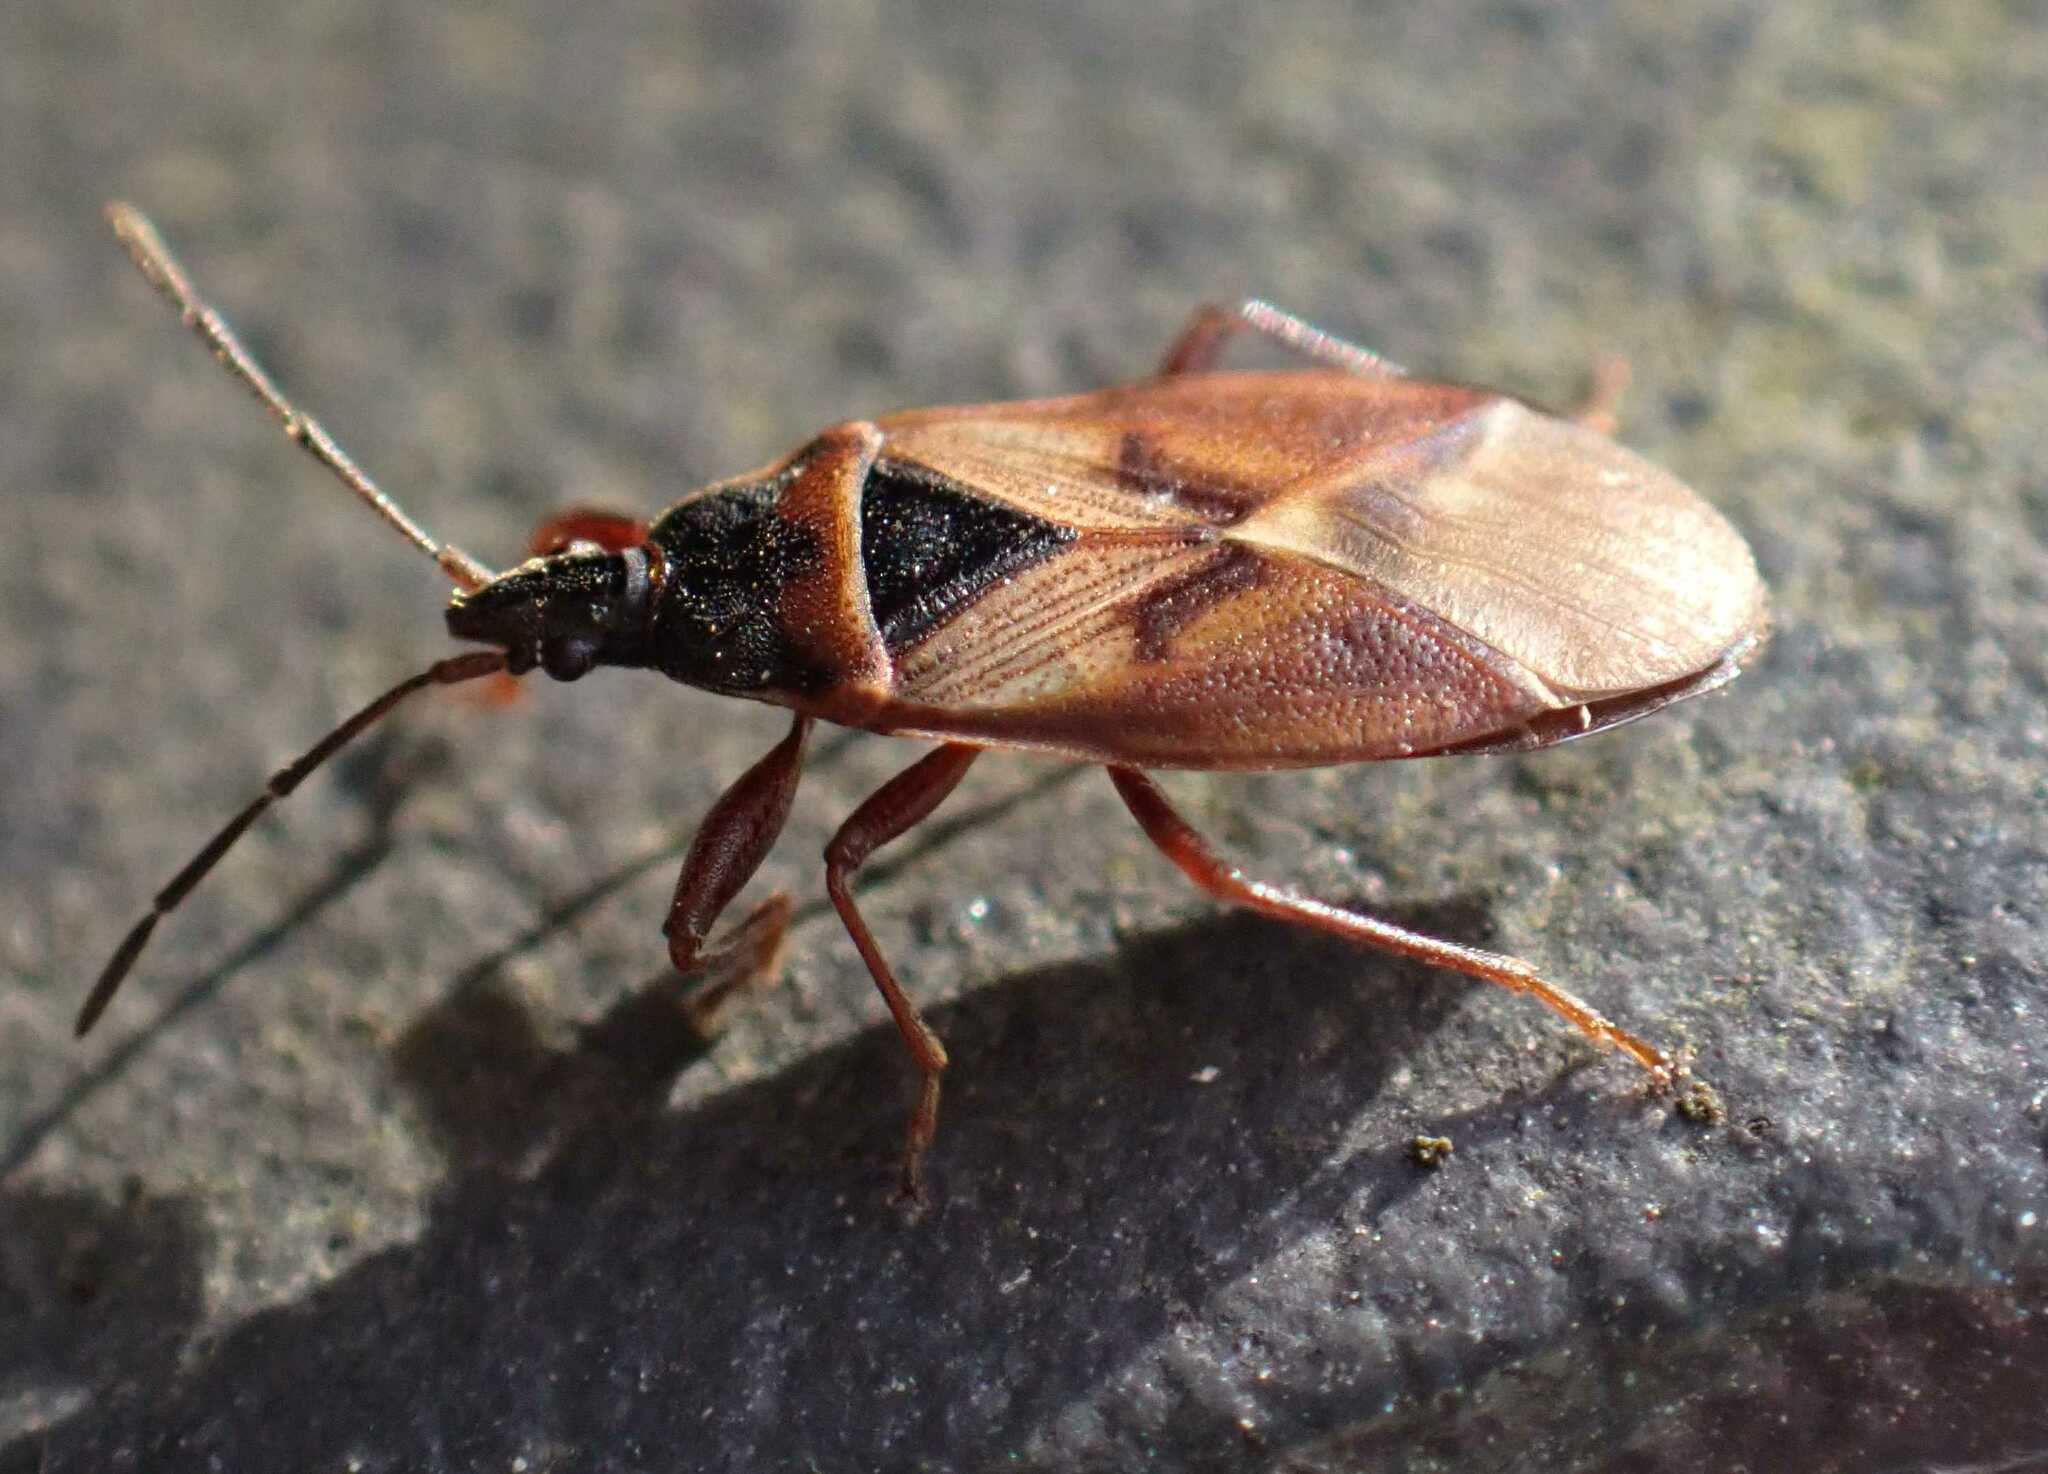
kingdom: Animalia
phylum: Arthropoda
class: Insecta
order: Hemiptera
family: Rhyparochromidae
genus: Gastrodes
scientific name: Gastrodes abietum
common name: Spruce cone bug
